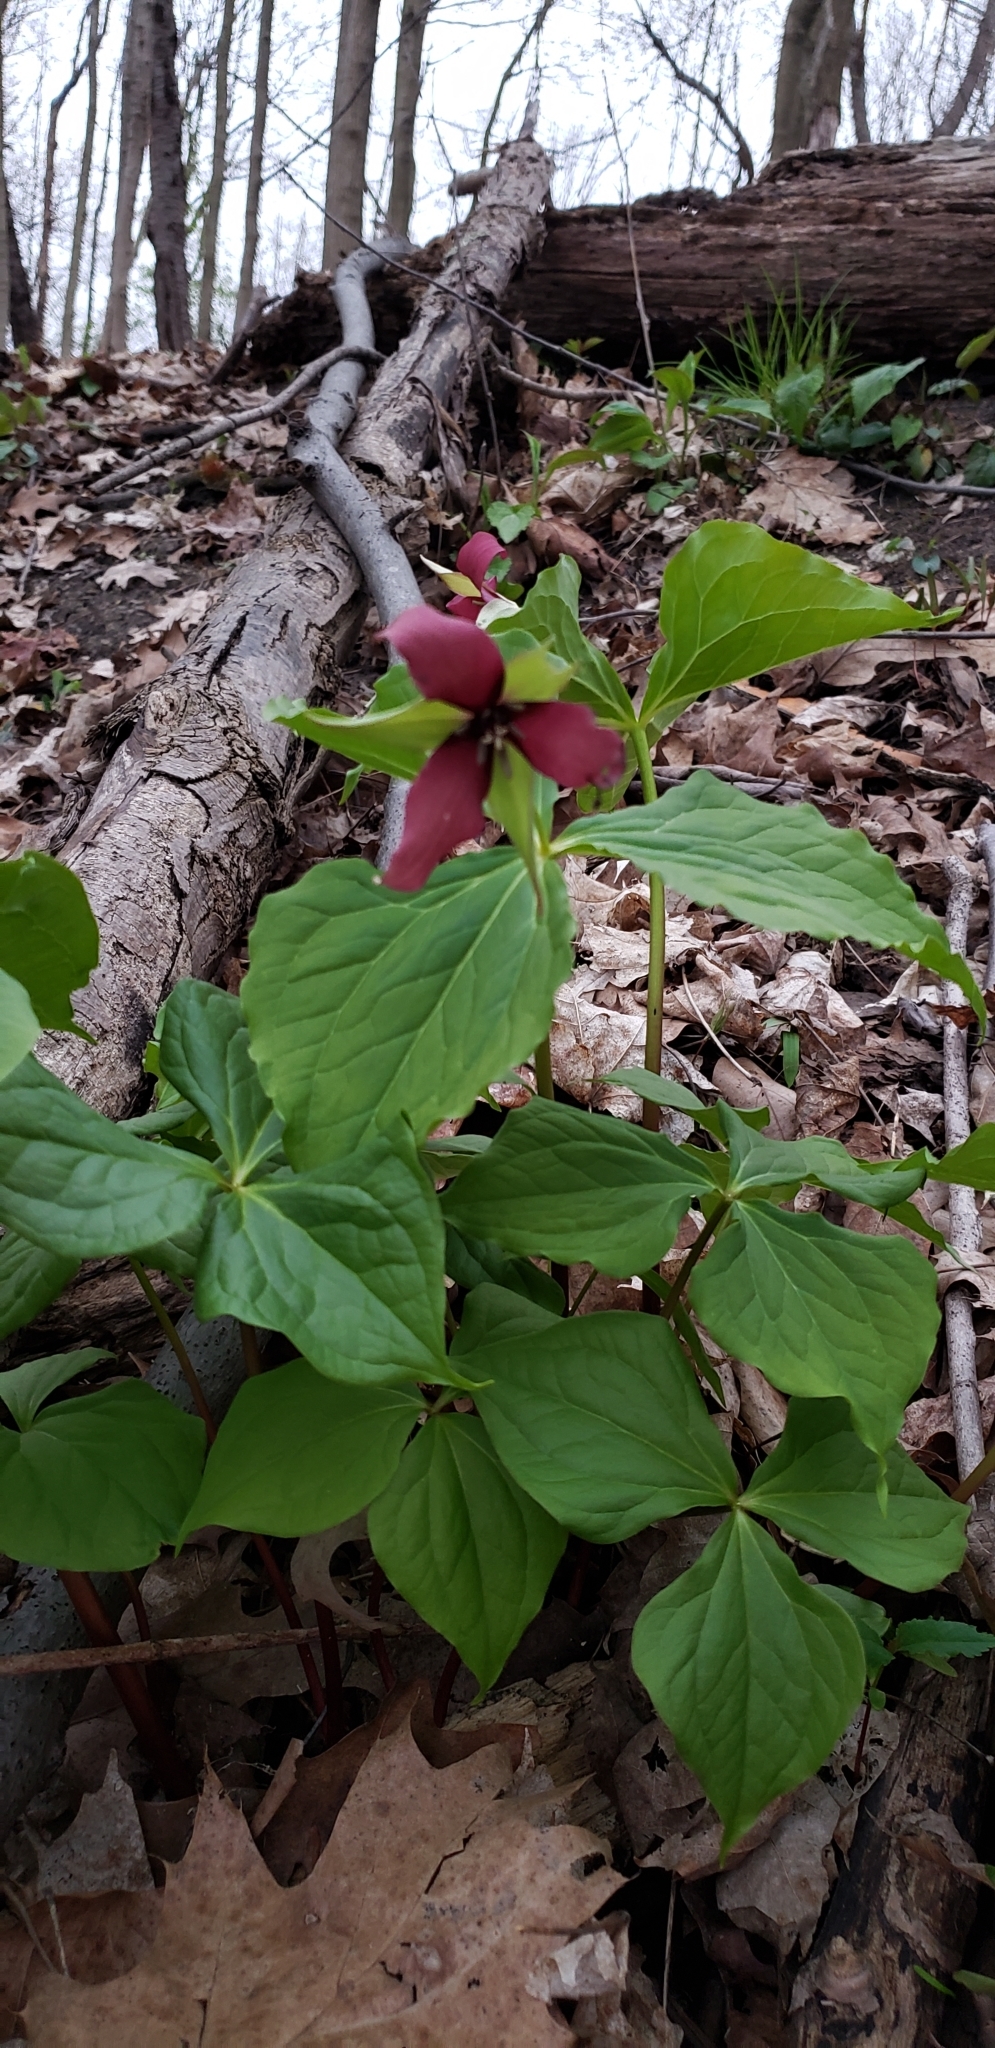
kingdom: Plantae
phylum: Tracheophyta
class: Liliopsida
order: Liliales
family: Melanthiaceae
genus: Trillium
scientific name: Trillium erectum
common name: Purple trillium
